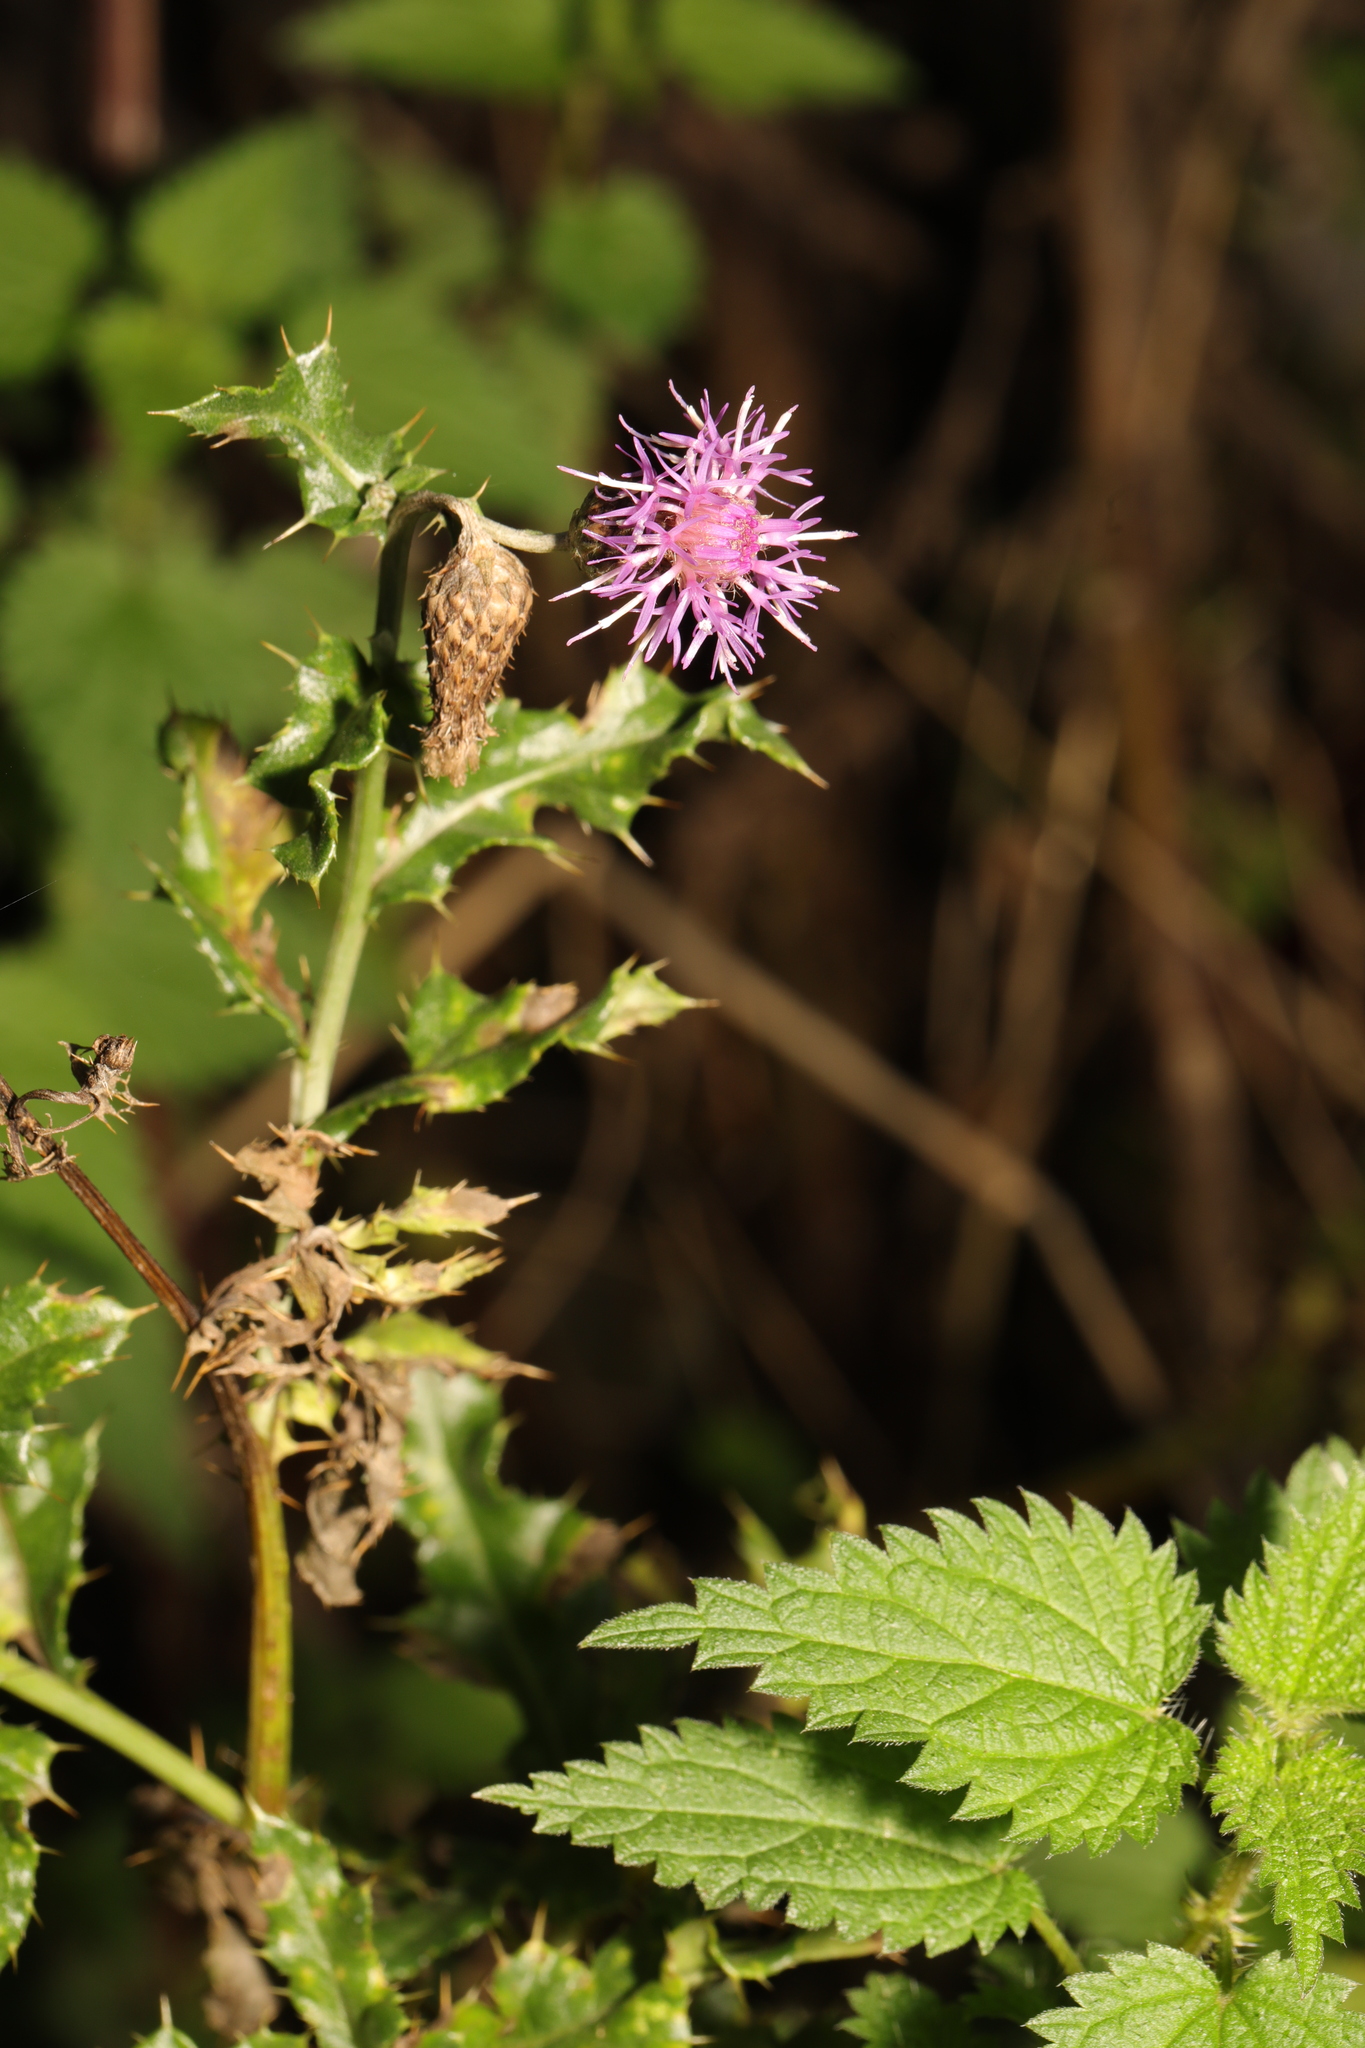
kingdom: Plantae
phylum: Tracheophyta
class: Magnoliopsida
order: Asterales
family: Asteraceae
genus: Cirsium
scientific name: Cirsium arvense
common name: Creeping thistle
